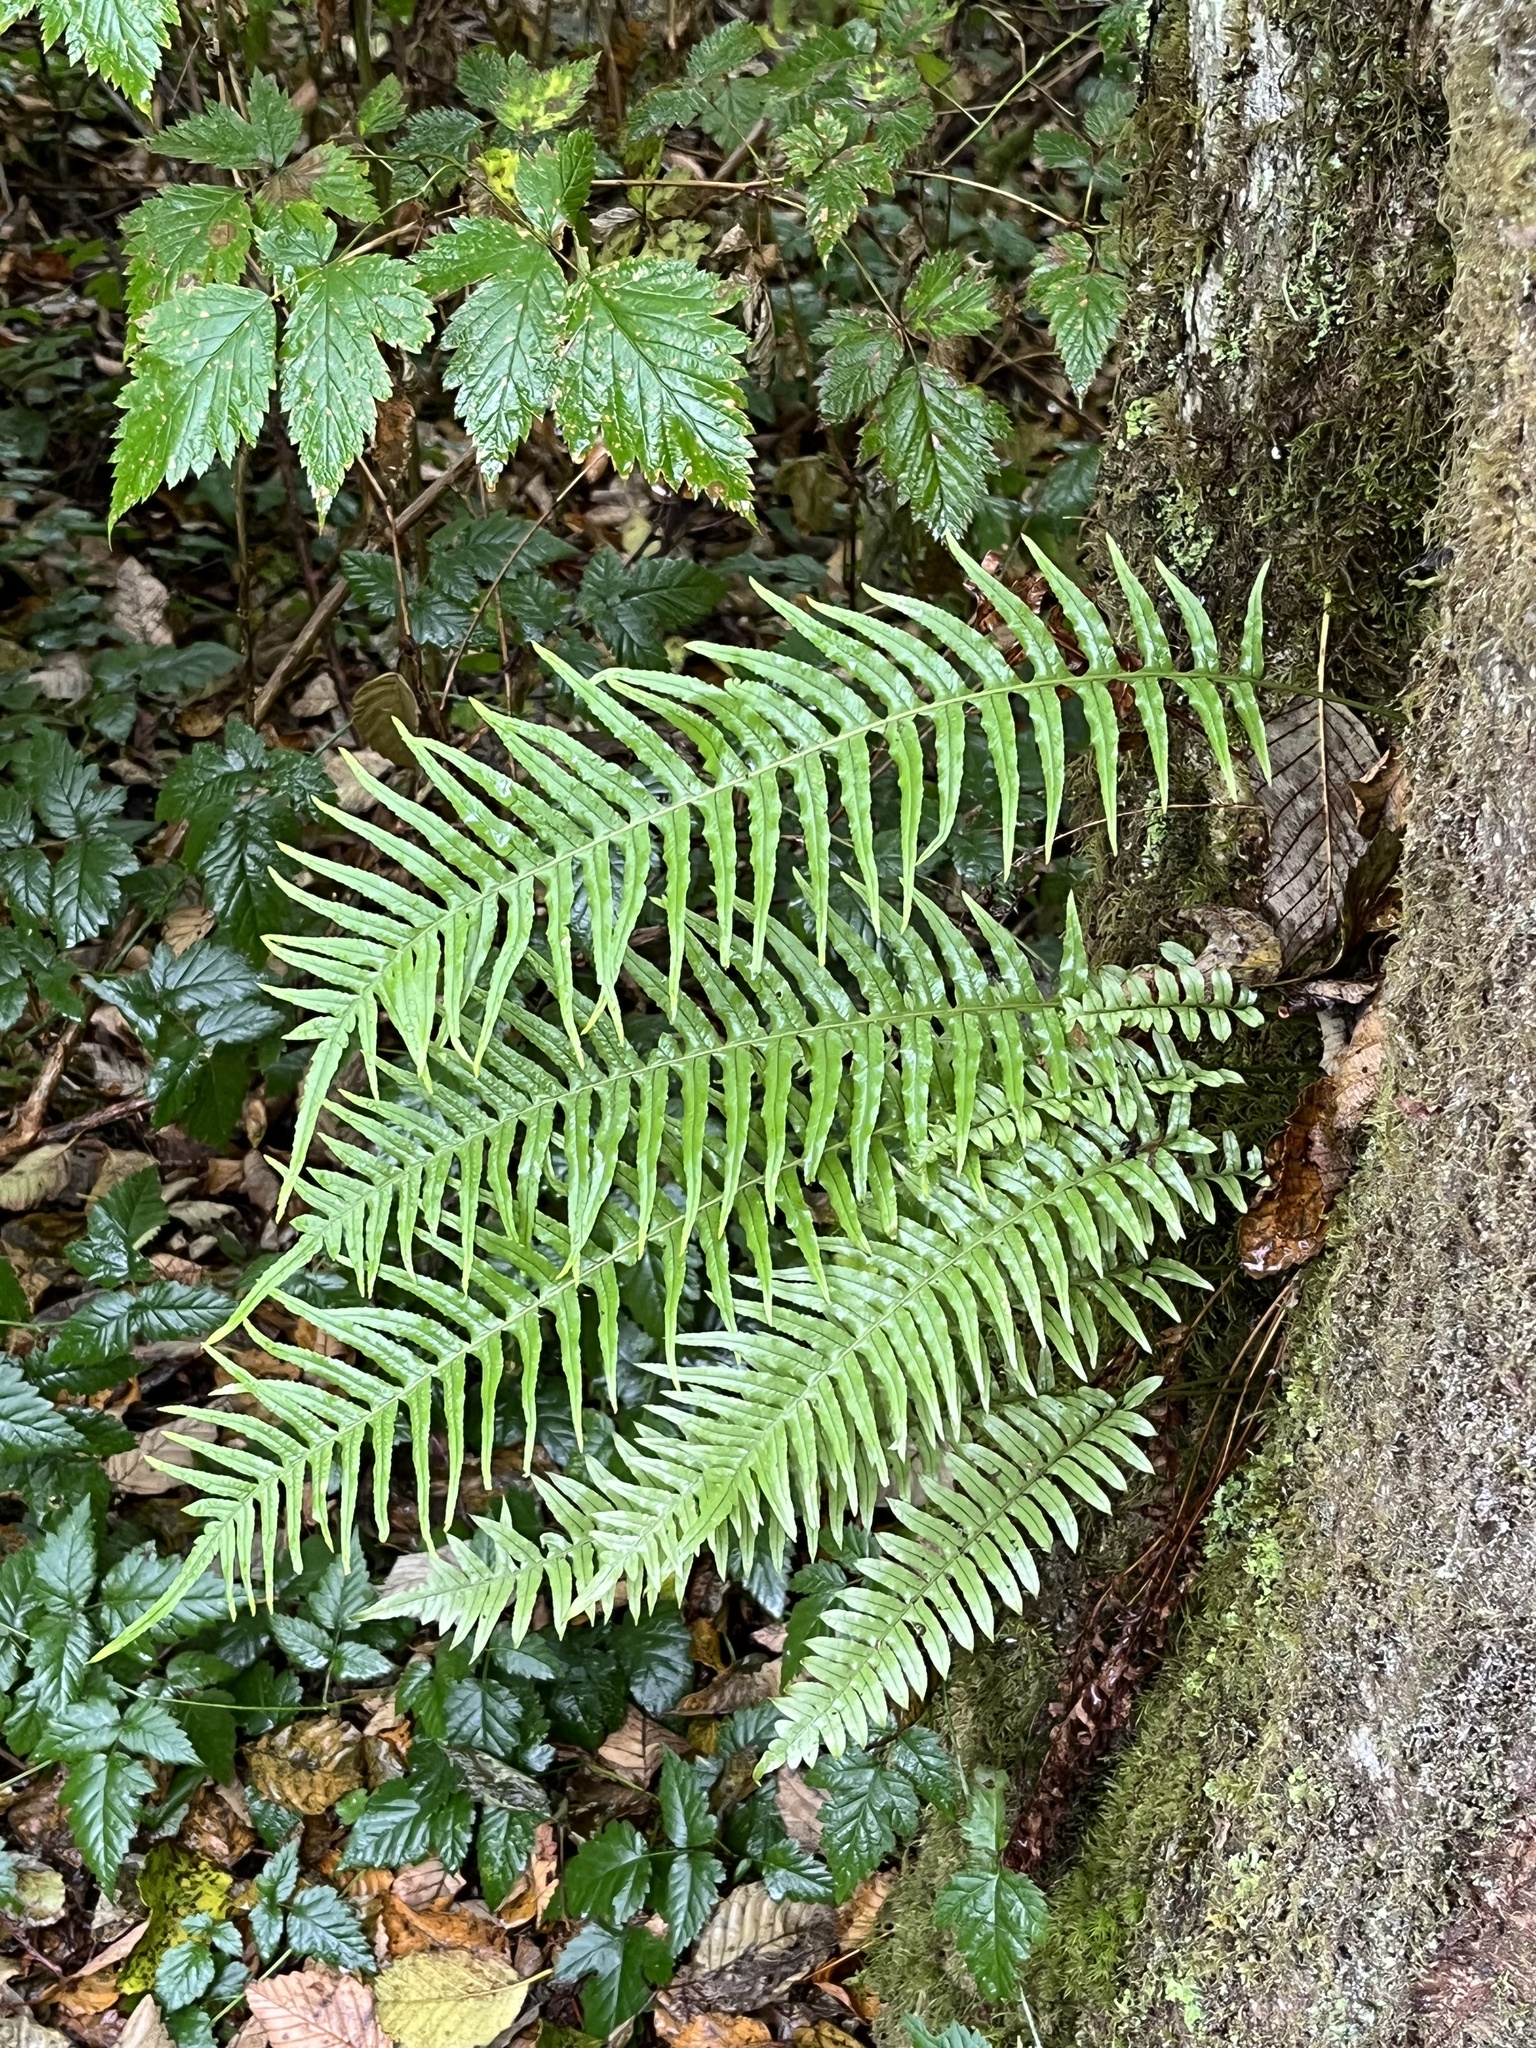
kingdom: Plantae
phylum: Tracheophyta
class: Polypodiopsida
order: Polypodiales
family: Polypodiaceae
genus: Polypodium
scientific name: Polypodium glycyrrhiza
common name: Licorice fern
